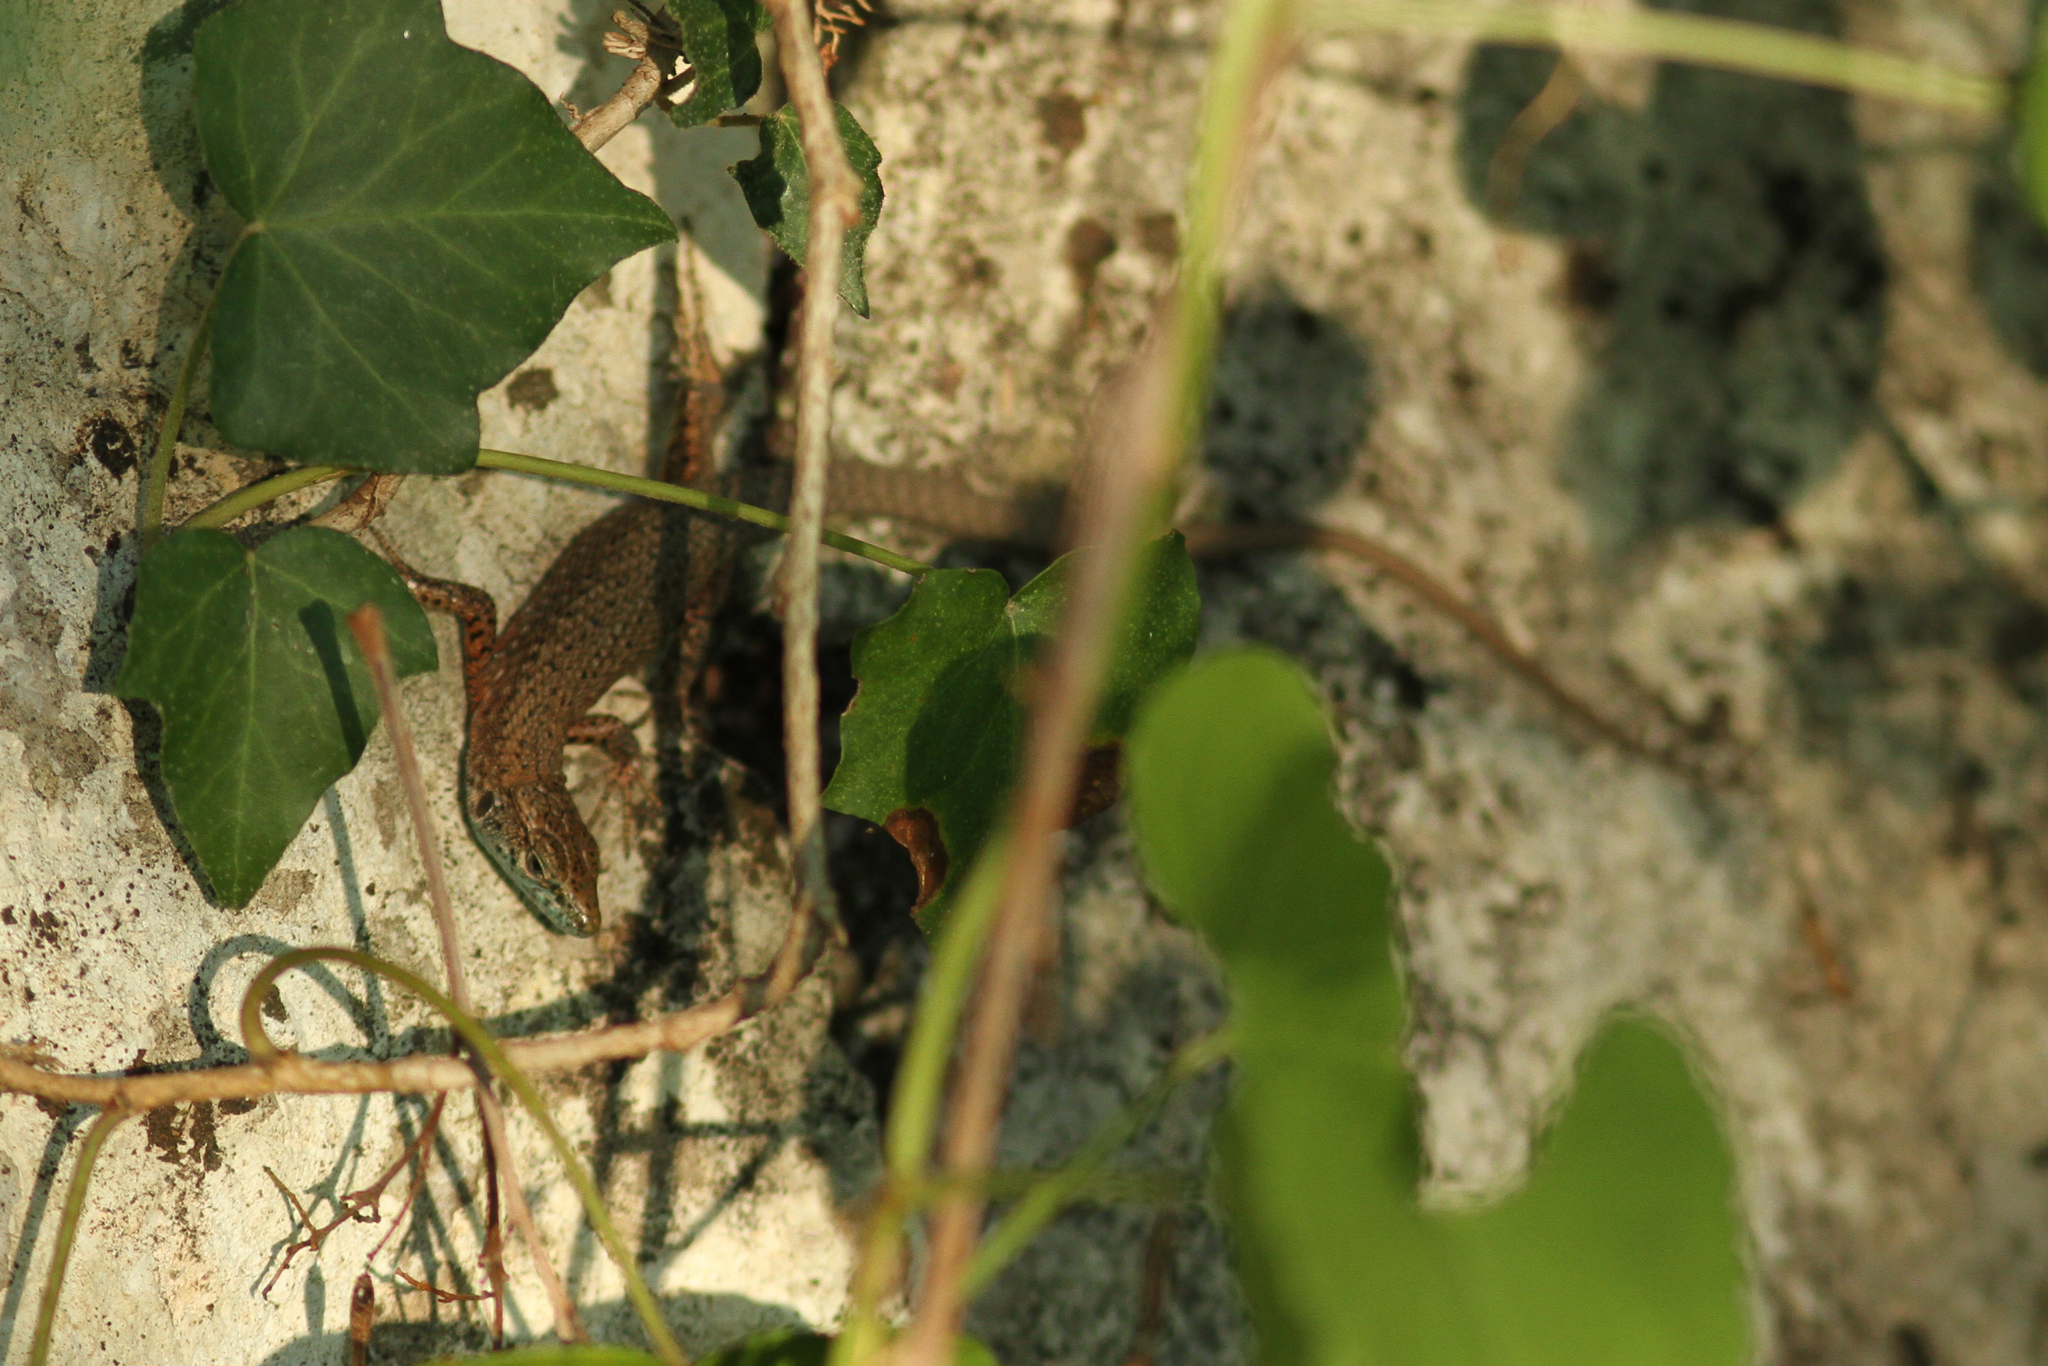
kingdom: Animalia
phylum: Chordata
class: Squamata
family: Lacertidae
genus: Algyroides
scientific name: Algyroides nigropunctatus
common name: Blue-throated keeled lizard
